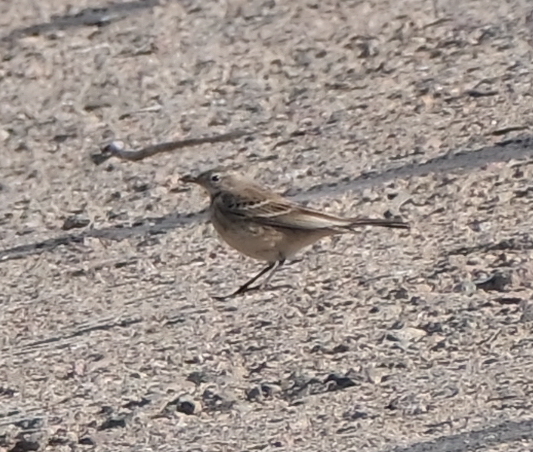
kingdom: Animalia
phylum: Chordata
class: Aves
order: Passeriformes
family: Motacillidae
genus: Anthus
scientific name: Anthus spinoletta
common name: Water pipit
